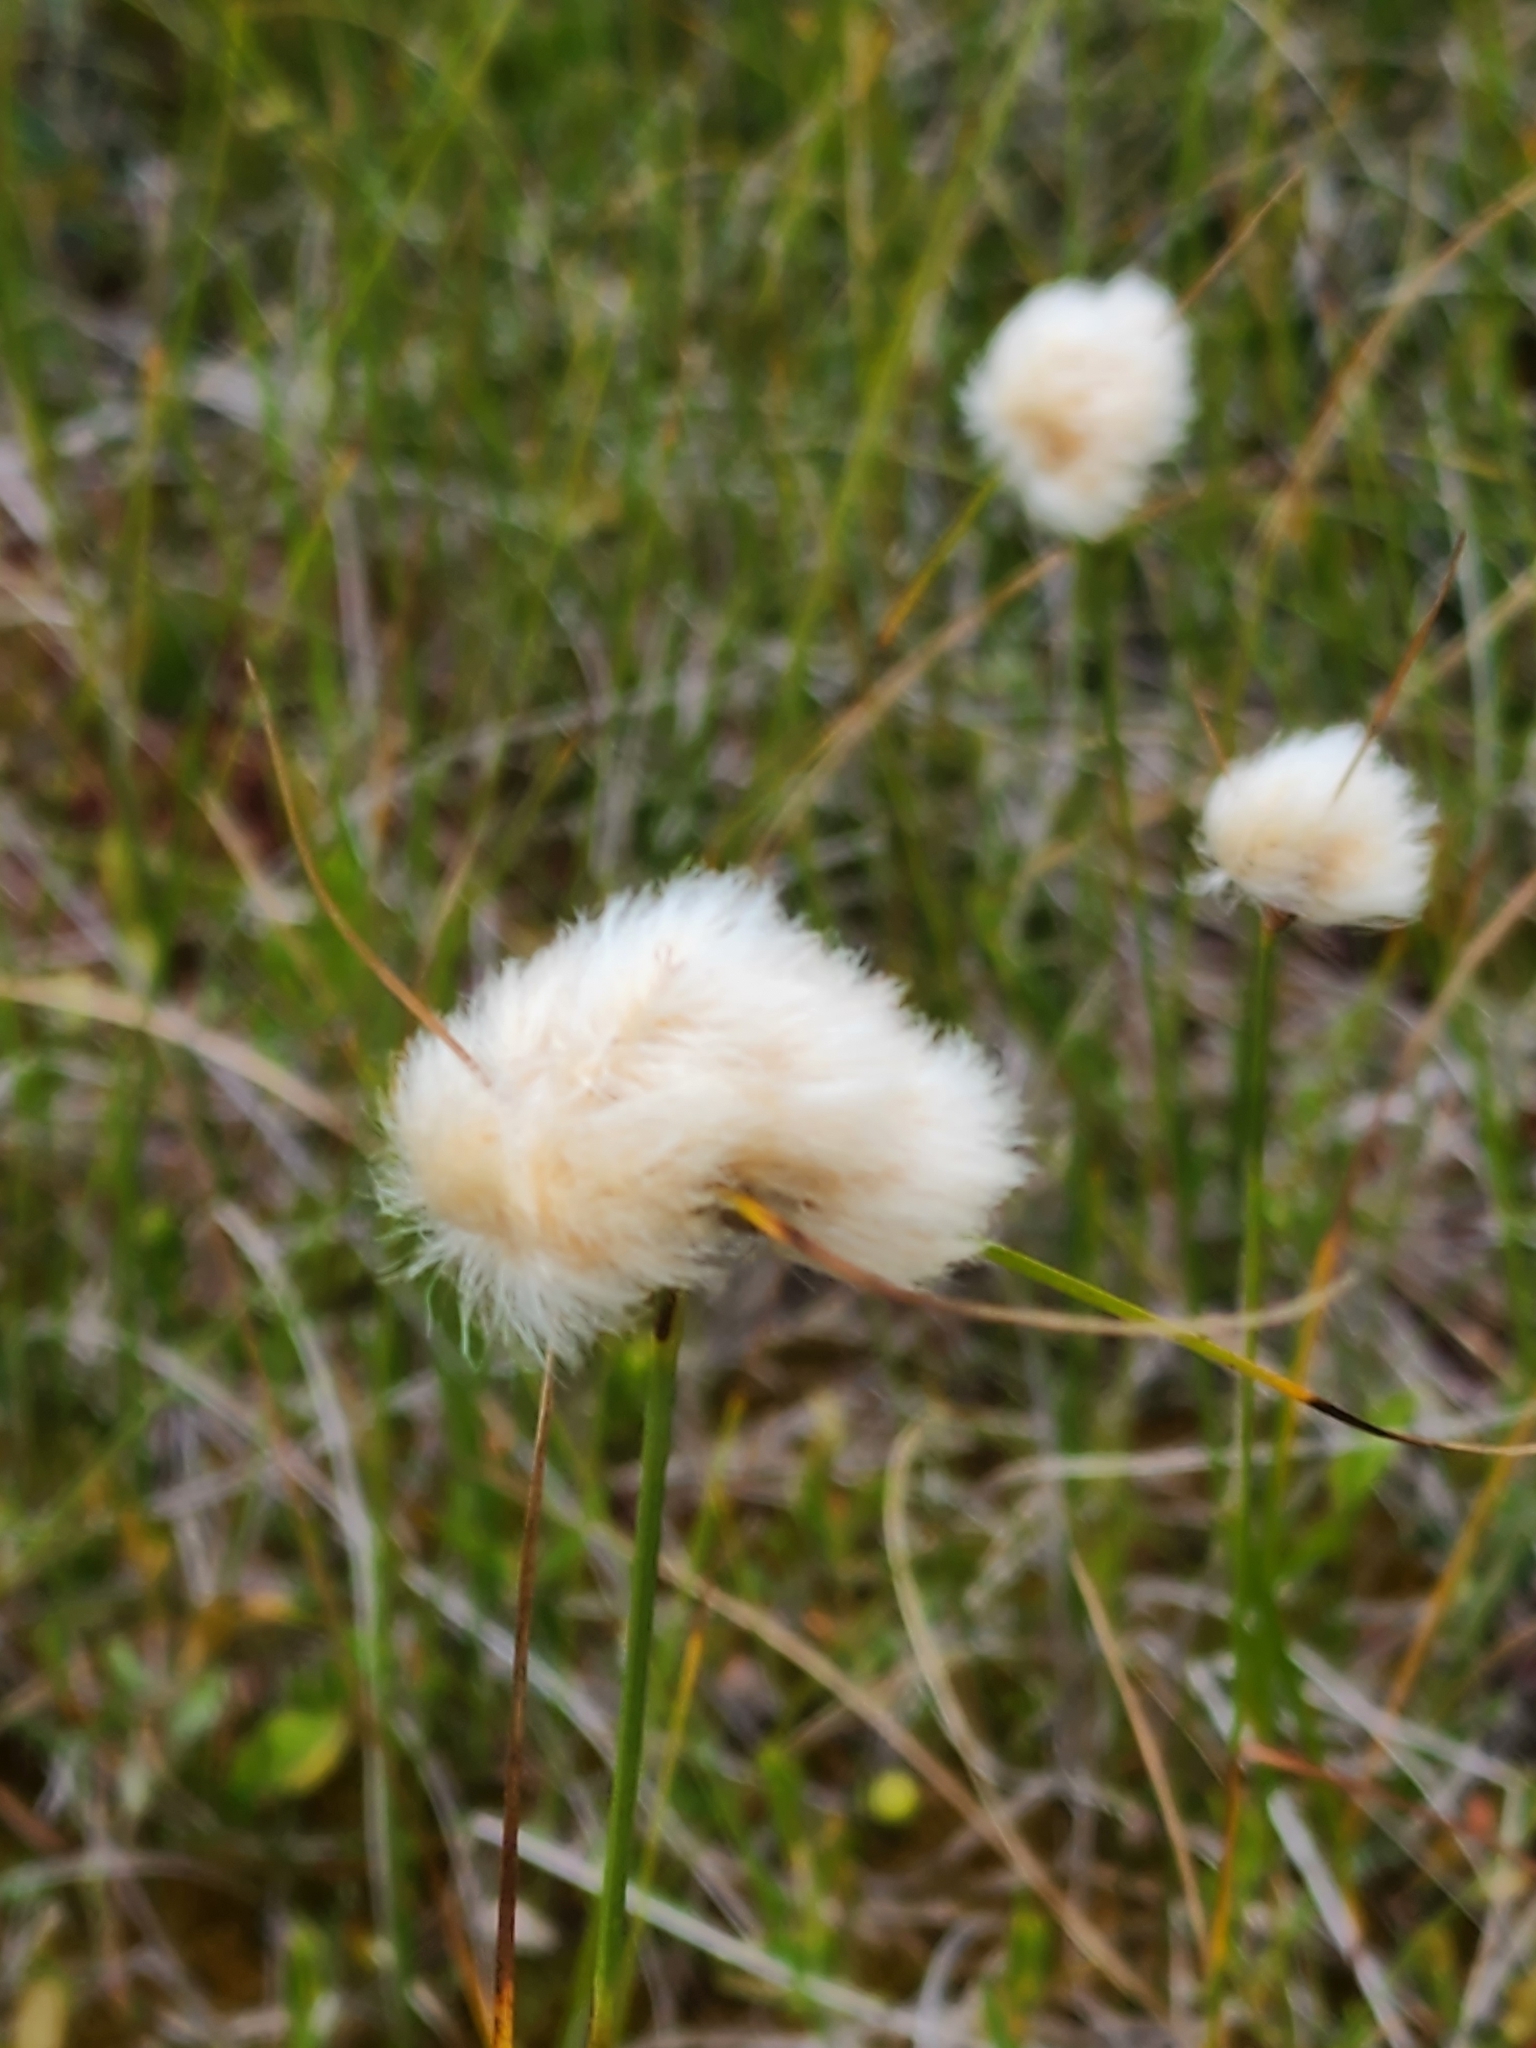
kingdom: Plantae
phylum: Tracheophyta
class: Liliopsida
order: Poales
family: Cyperaceae
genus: Eriophorum
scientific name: Eriophorum virginicum
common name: Tawny cottongrass
